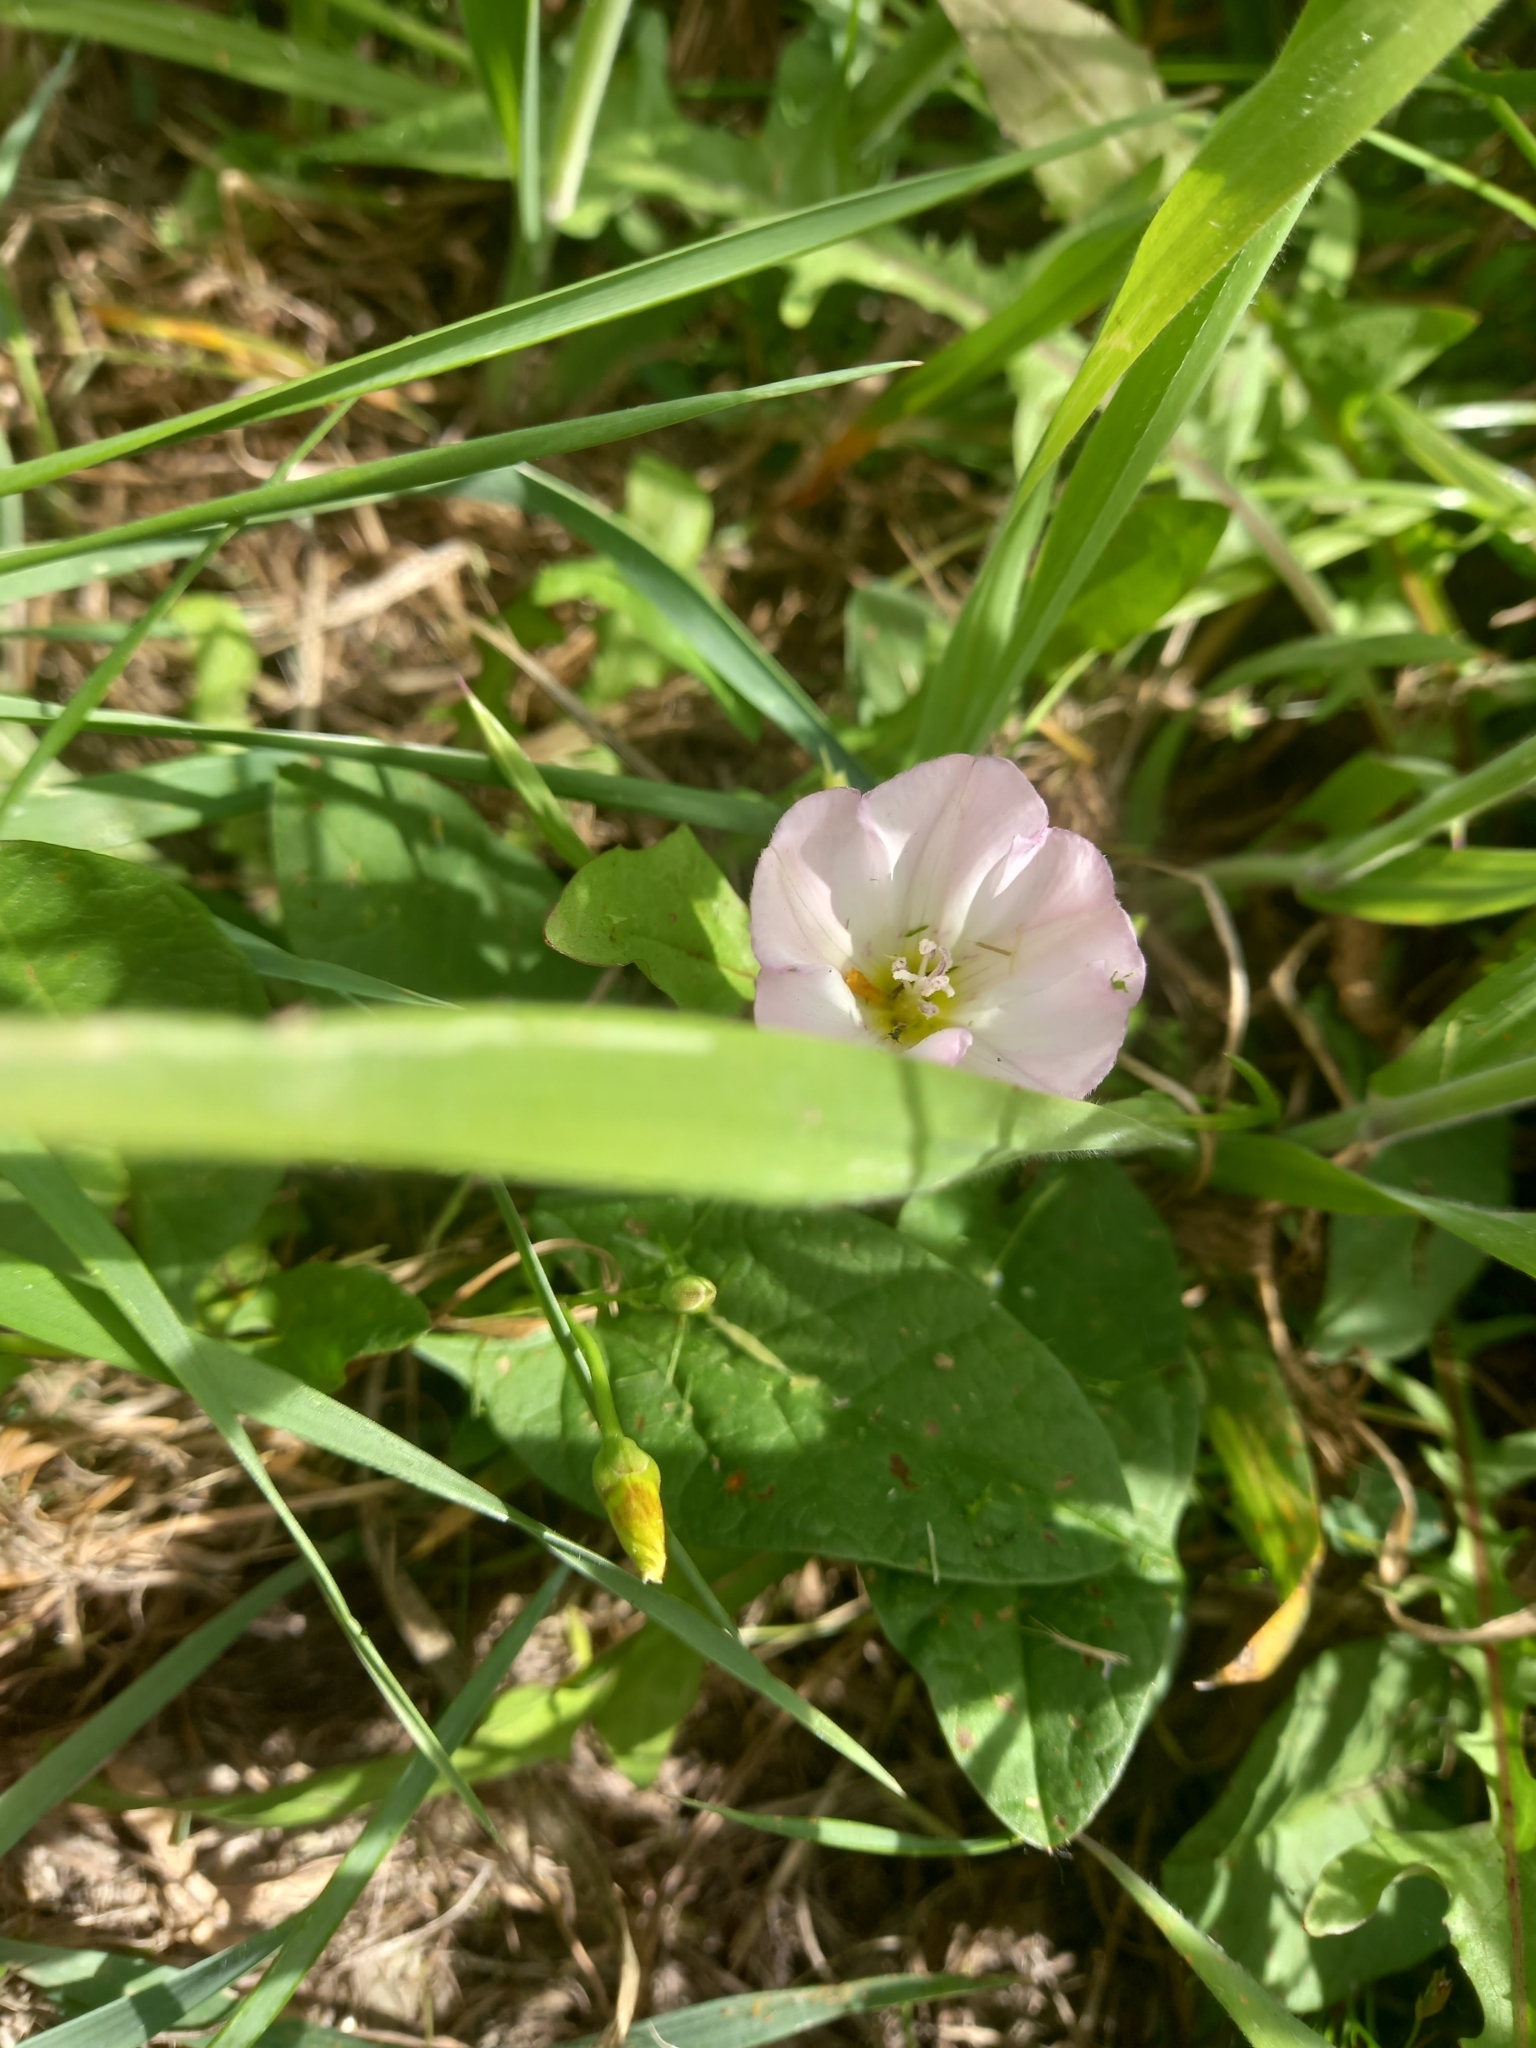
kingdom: Plantae
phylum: Tracheophyta
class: Magnoliopsida
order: Solanales
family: Convolvulaceae
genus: Convolvulus
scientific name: Convolvulus arvensis
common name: Field bindweed
